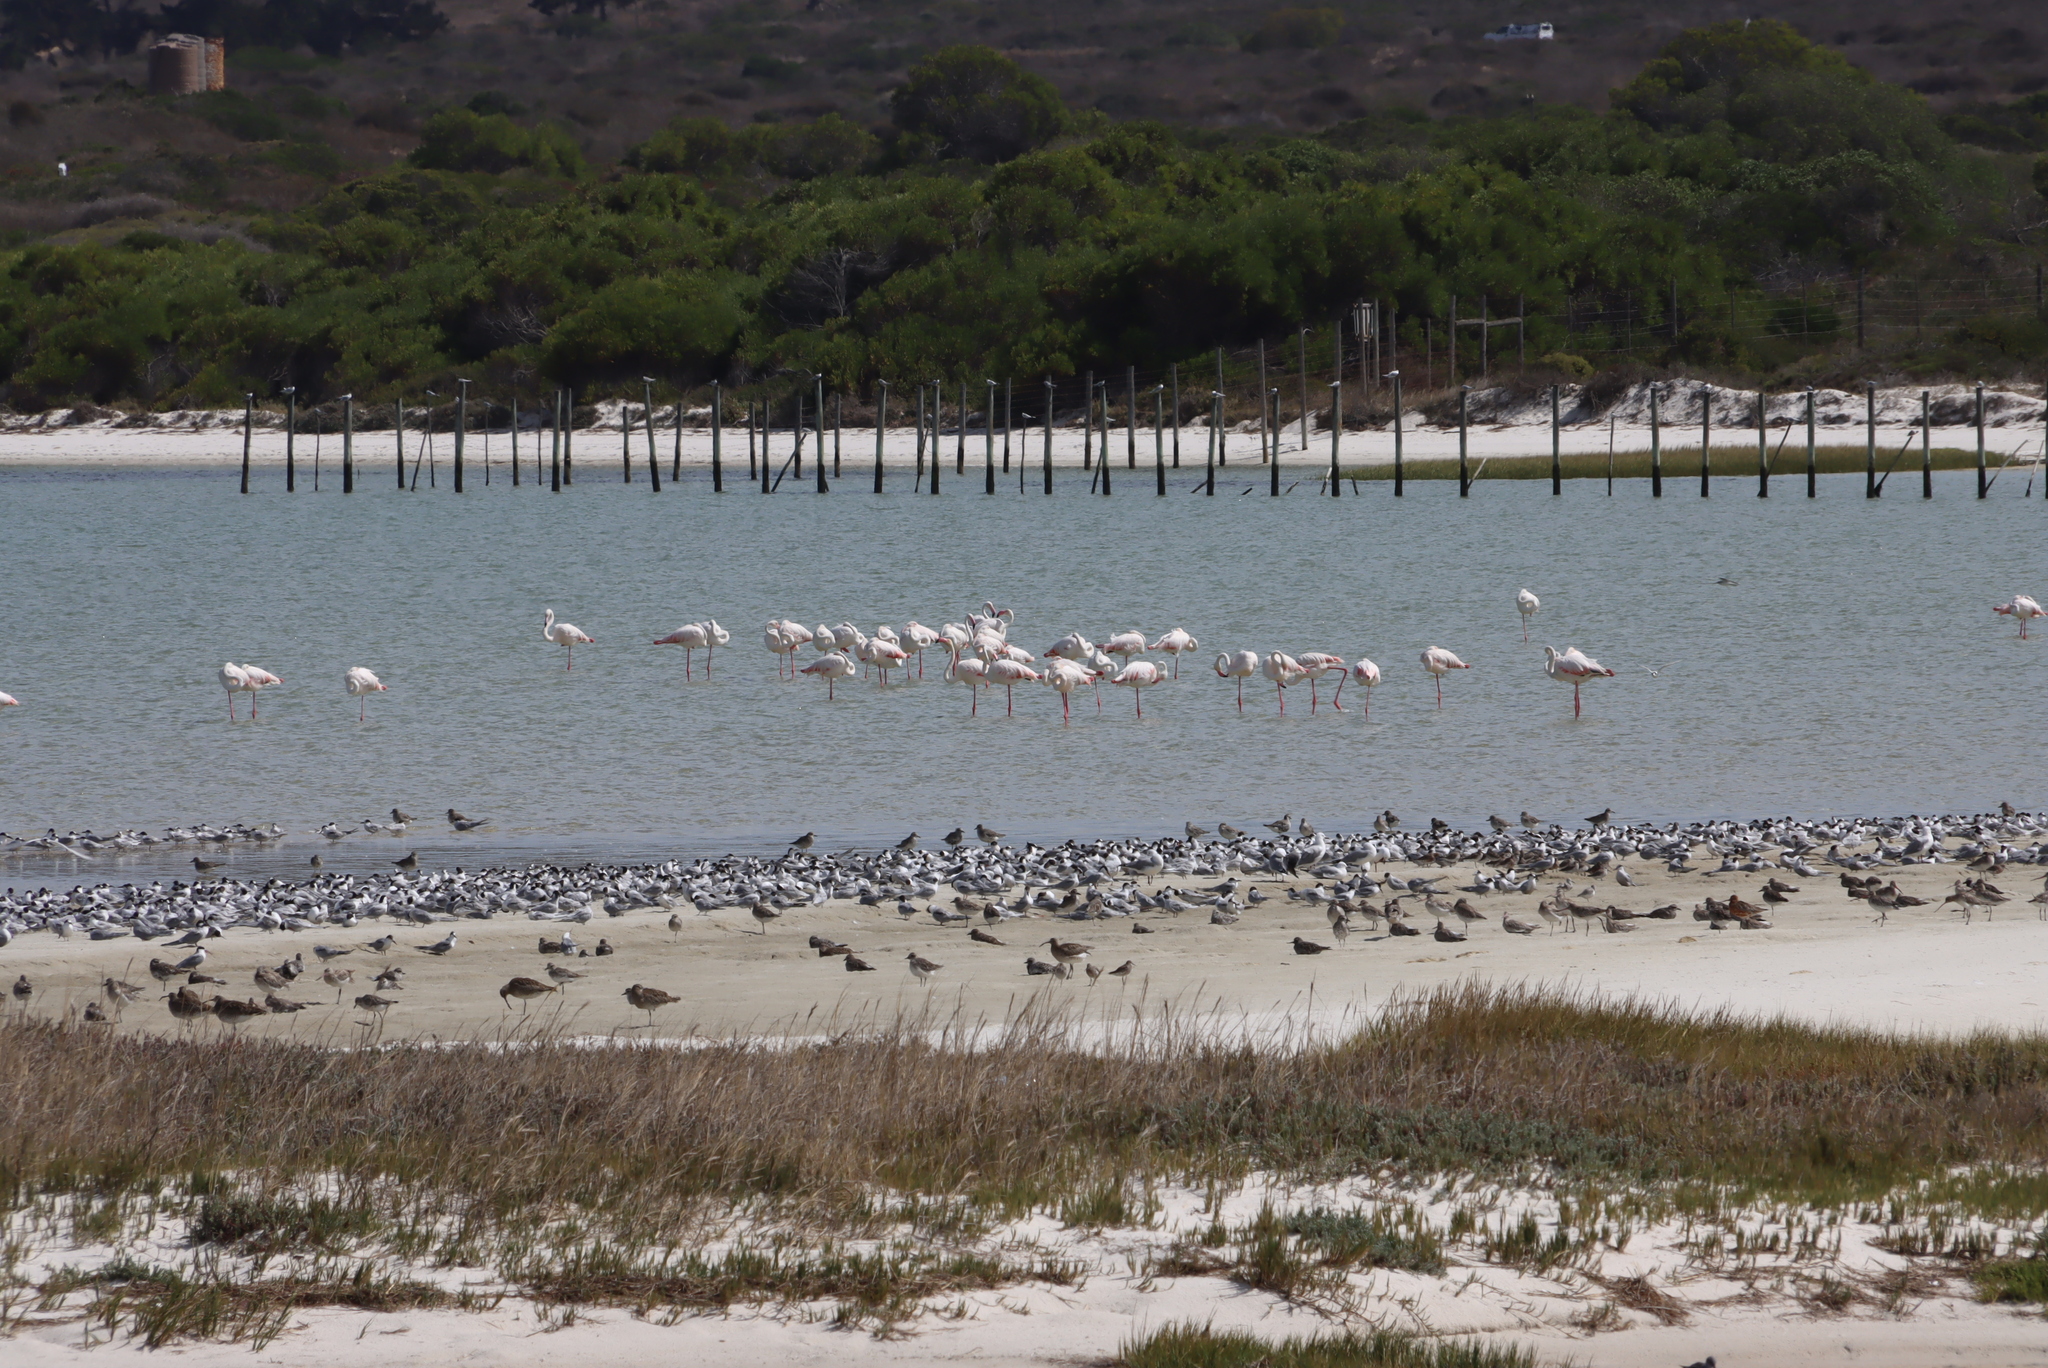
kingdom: Animalia
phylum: Chordata
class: Aves
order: Charadriiformes
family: Scolopacidae
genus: Limosa
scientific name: Limosa lapponica
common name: Bar-tailed godwit
